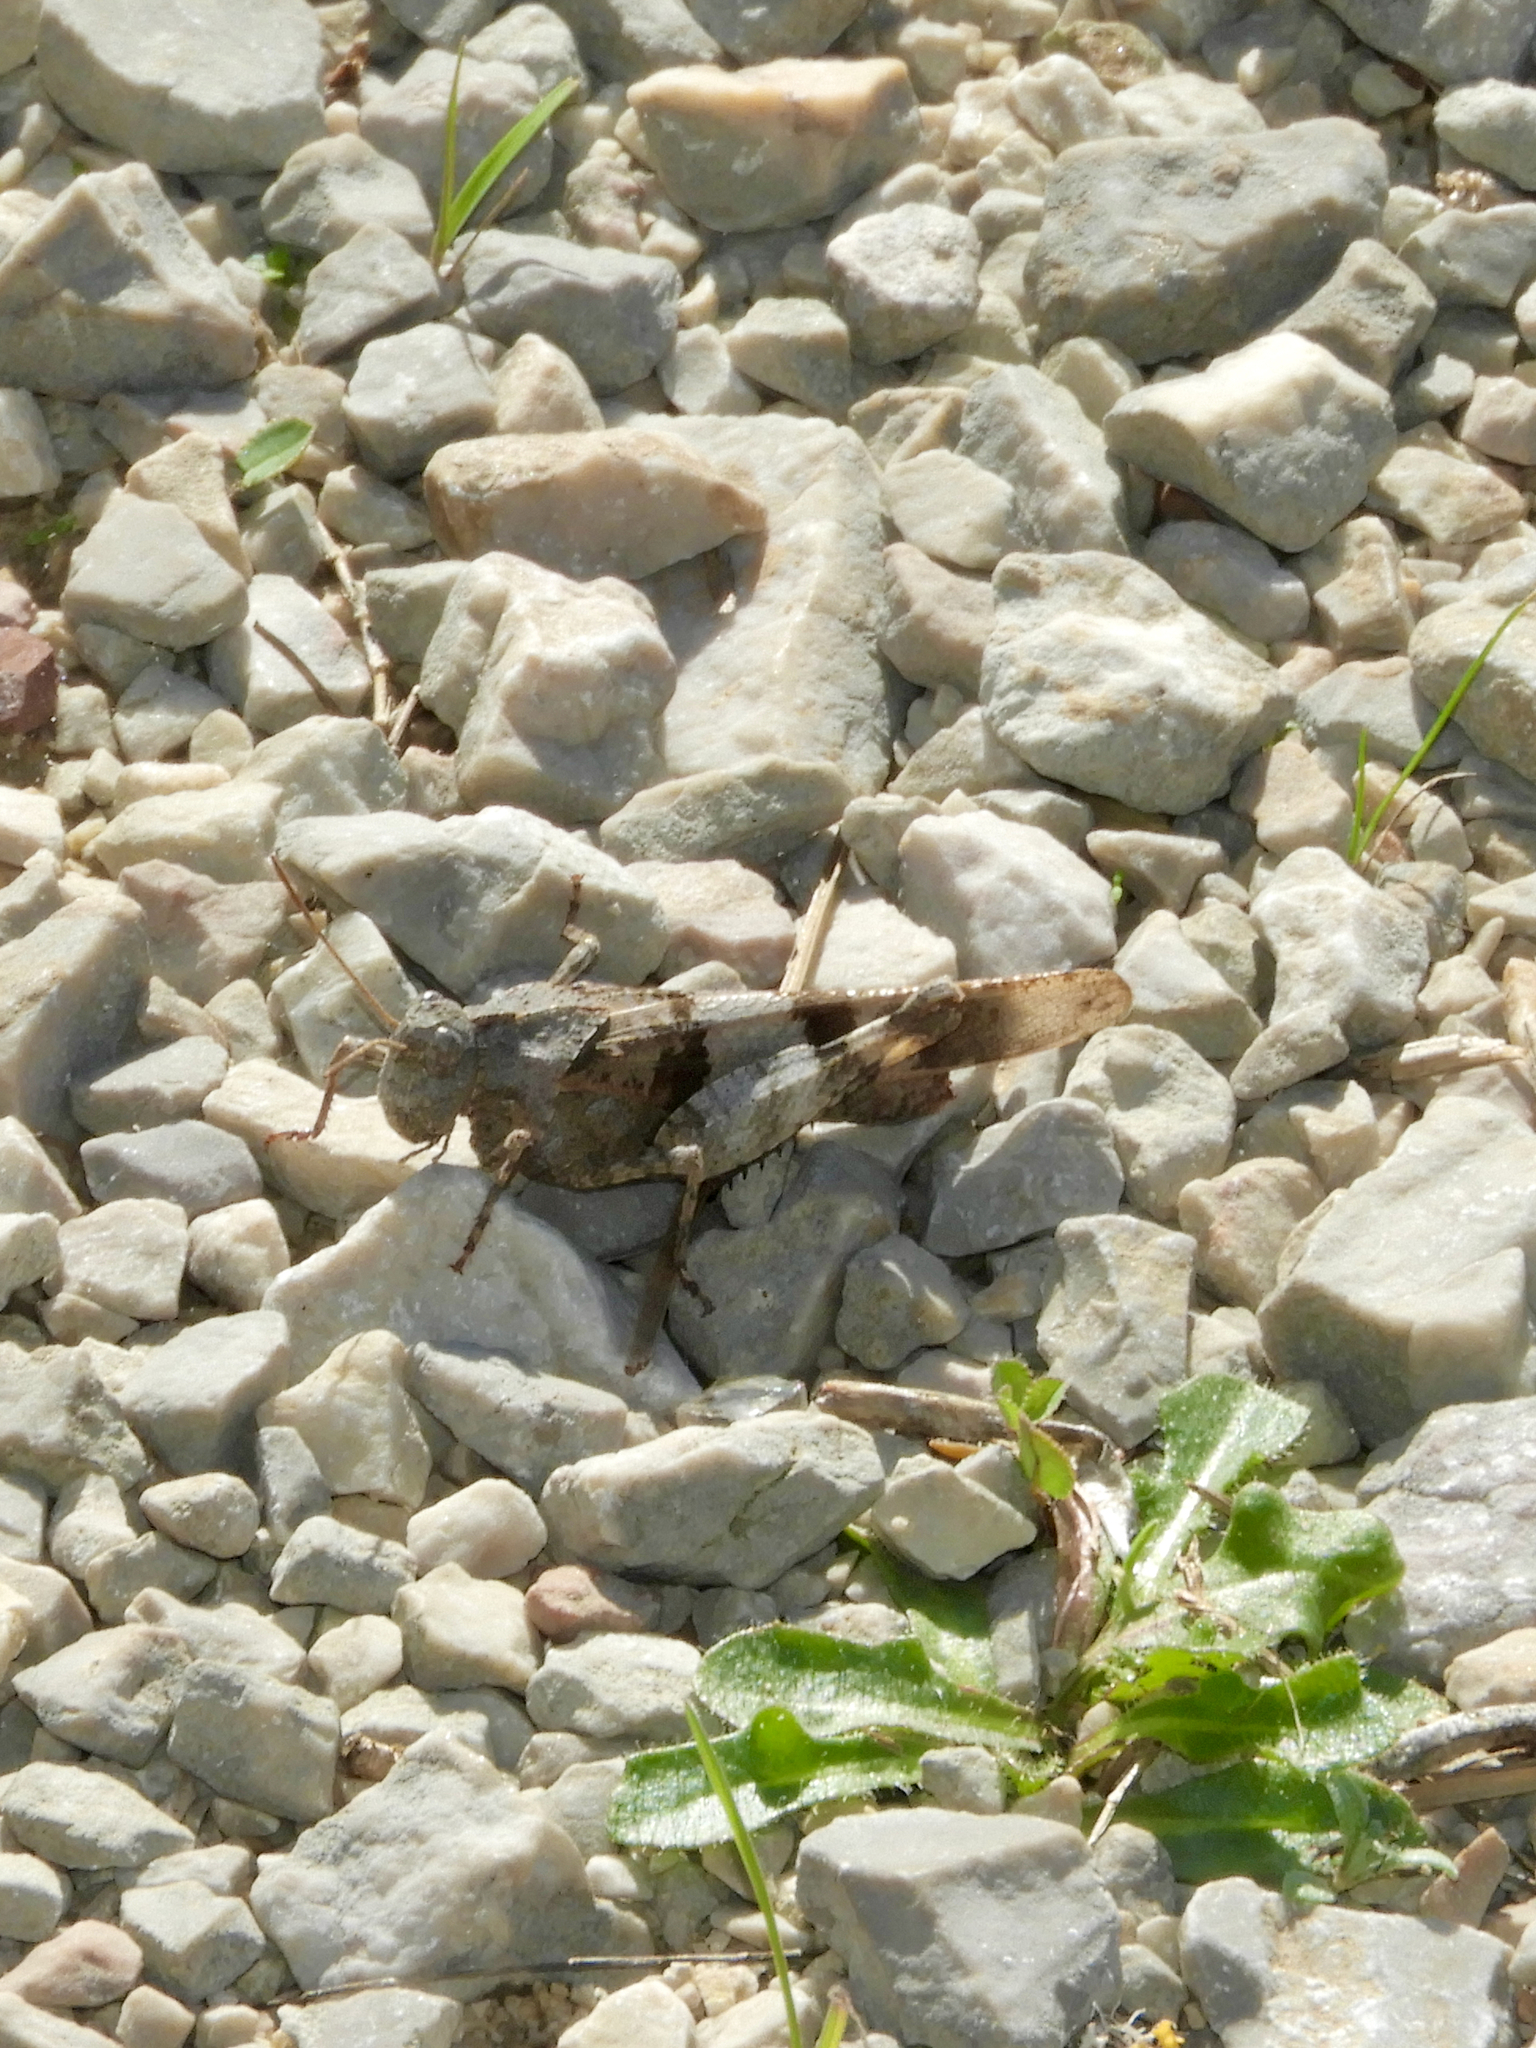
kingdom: Animalia
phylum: Arthropoda
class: Insecta
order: Orthoptera
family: Acrididae
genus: Oedipoda
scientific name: Oedipoda caerulescens
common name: Blue-winged grasshopper
